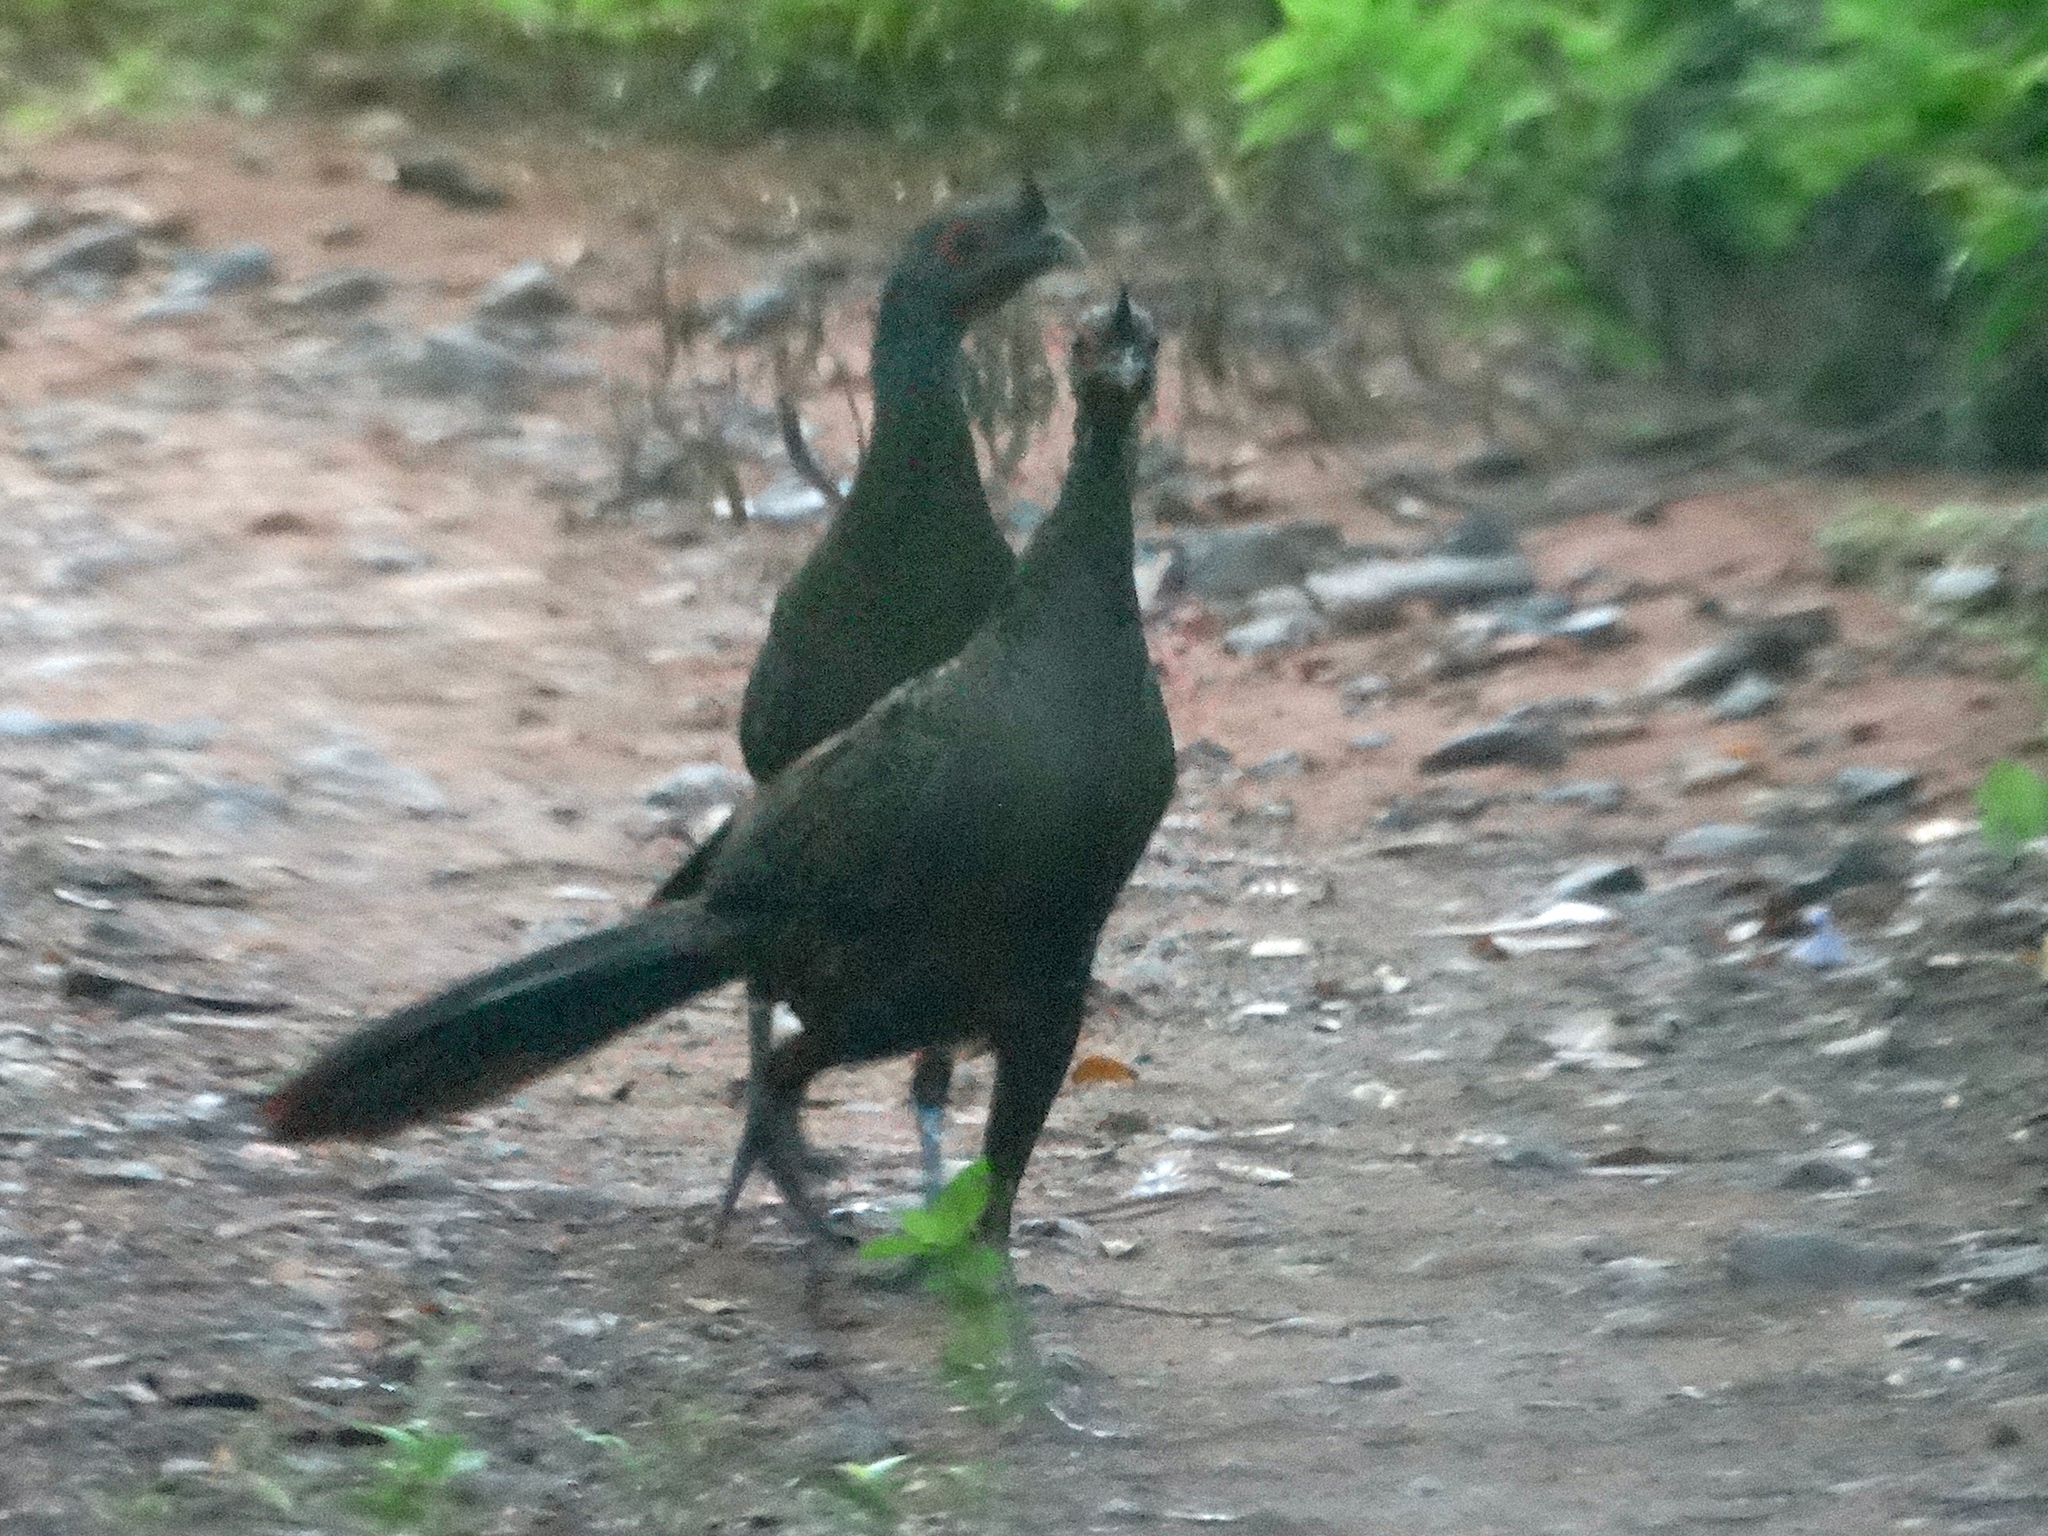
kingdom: Animalia
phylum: Chordata
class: Aves
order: Galliformes
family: Cracidae
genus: Ortalis
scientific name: Ortalis wagleri
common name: Rufous-bellied chachalaca
